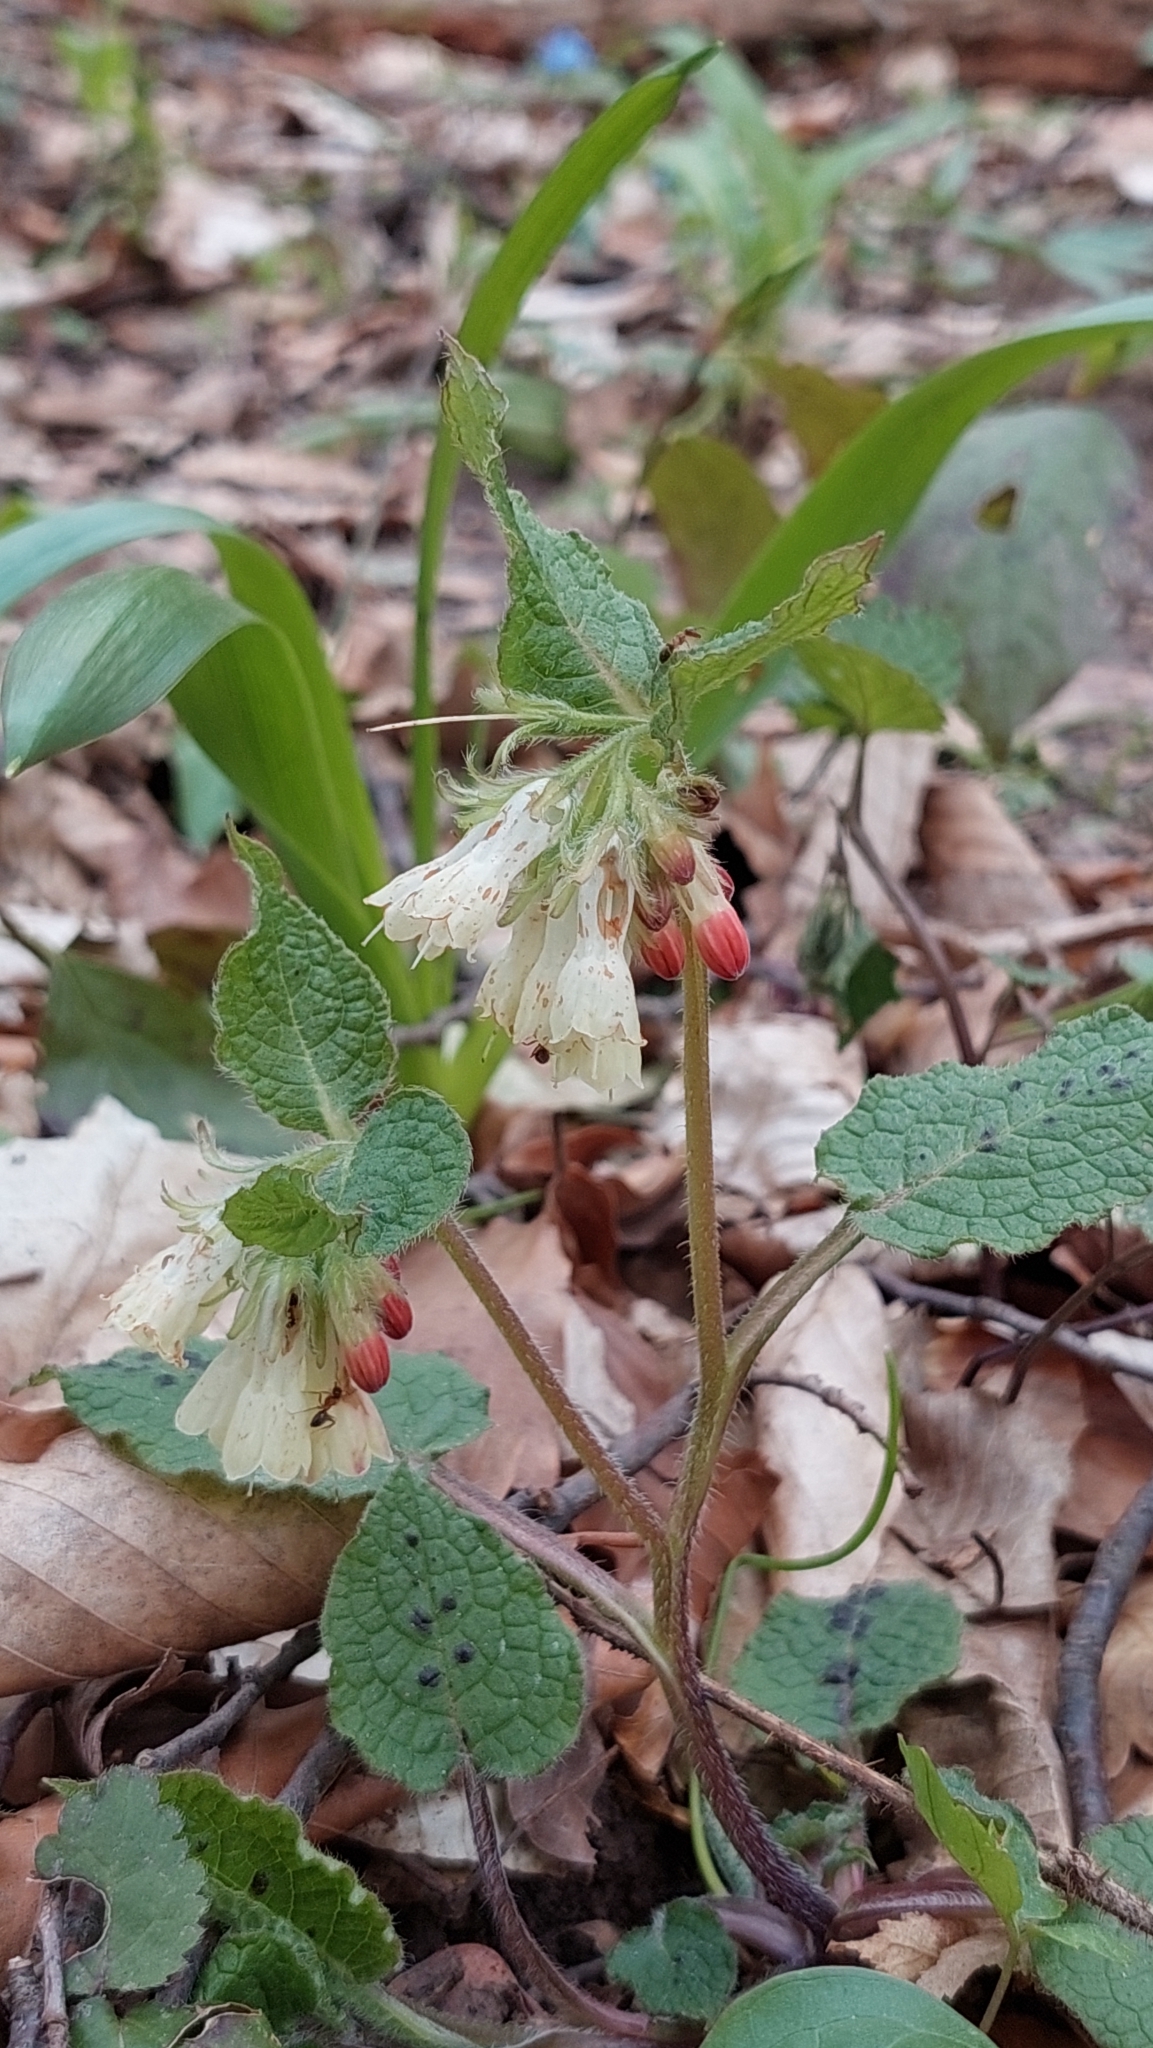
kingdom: Plantae
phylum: Tracheophyta
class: Magnoliopsida
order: Boraginales
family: Boraginaceae
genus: Symphytum
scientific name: Symphytum grandiflorum
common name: Creeping comfrey
